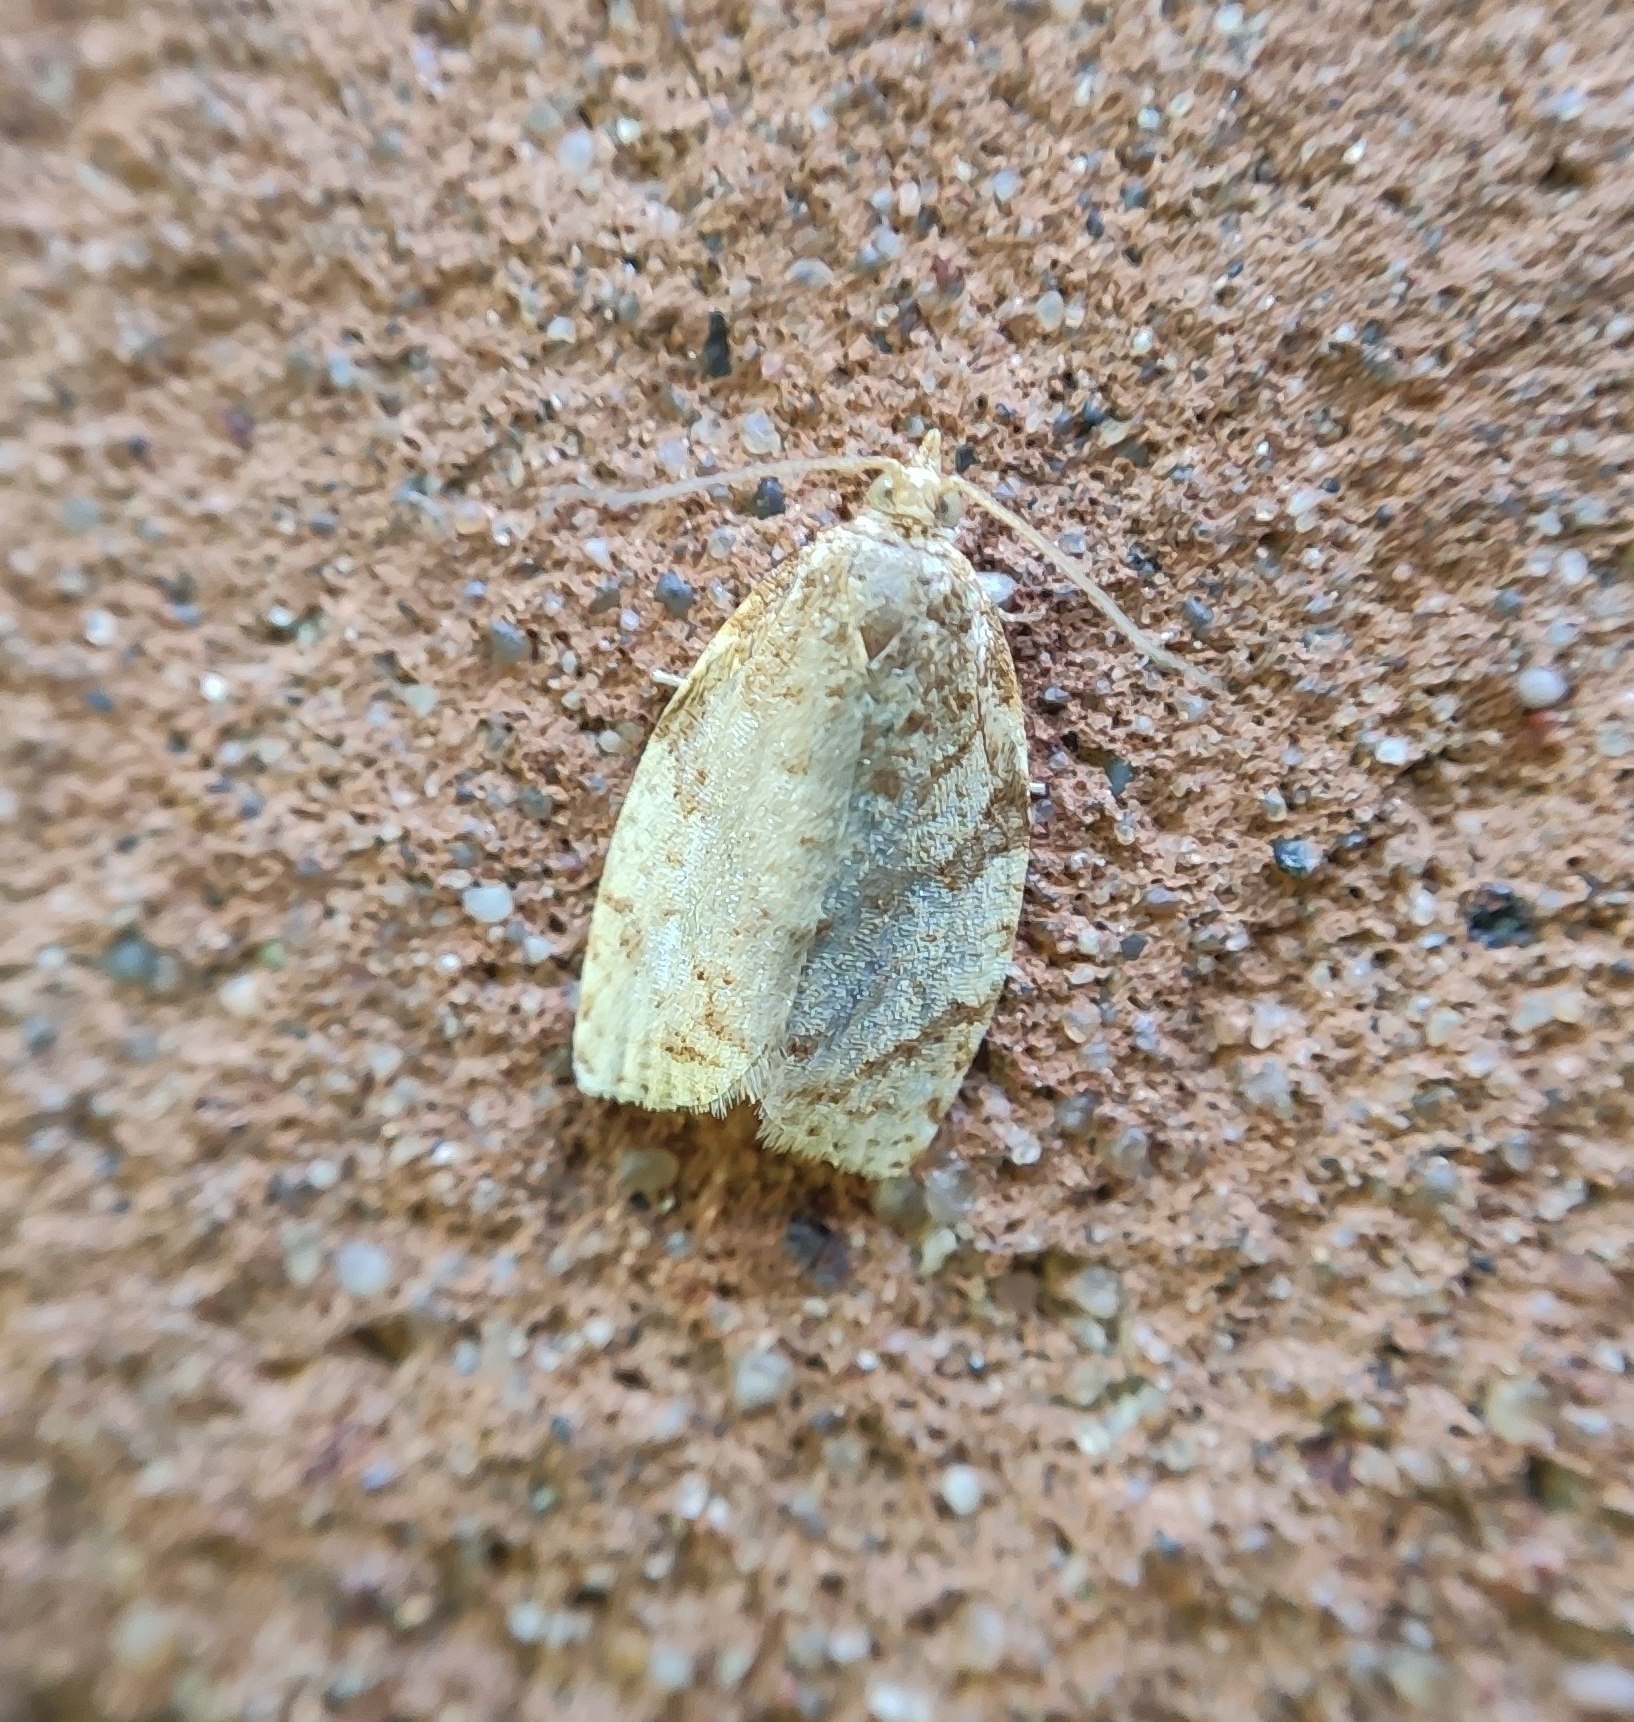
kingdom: Animalia
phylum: Arthropoda
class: Insecta
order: Lepidoptera
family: Tortricidae
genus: Adoxophyes
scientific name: Adoxophyes orana
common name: Summer fruit tortrix
